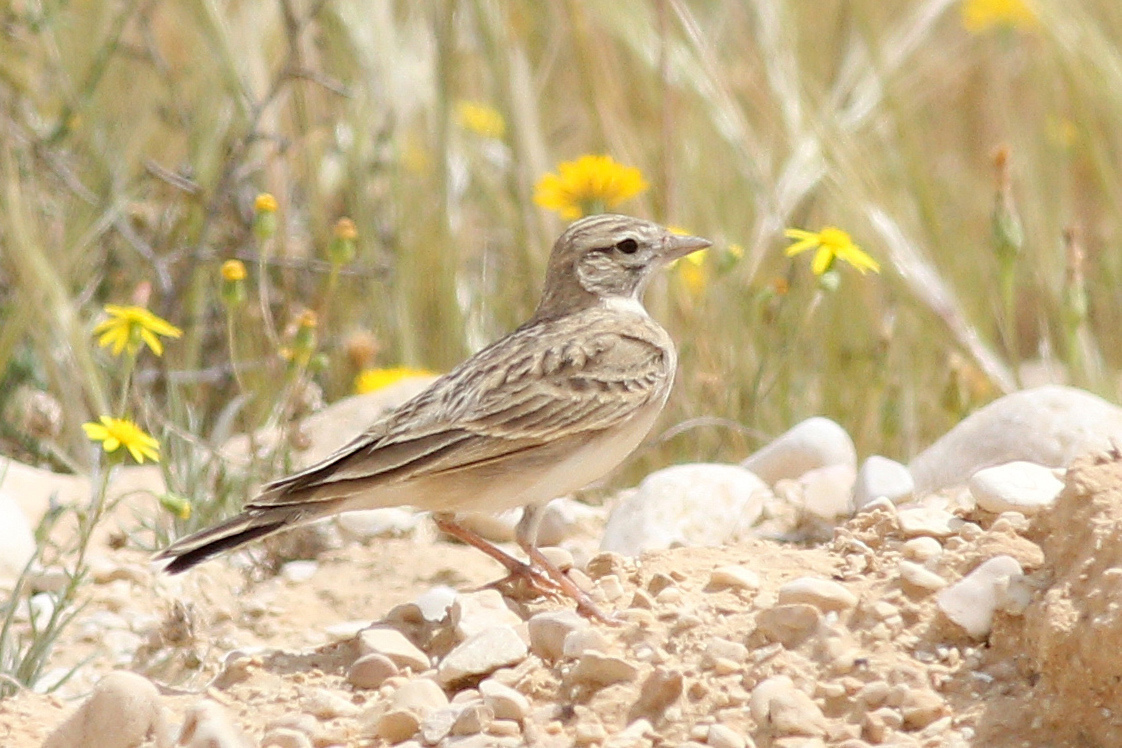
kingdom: Animalia
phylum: Chordata
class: Aves
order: Passeriformes
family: Alaudidae
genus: Calandrella
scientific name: Calandrella brachydactyla
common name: Greater short-toed lark
